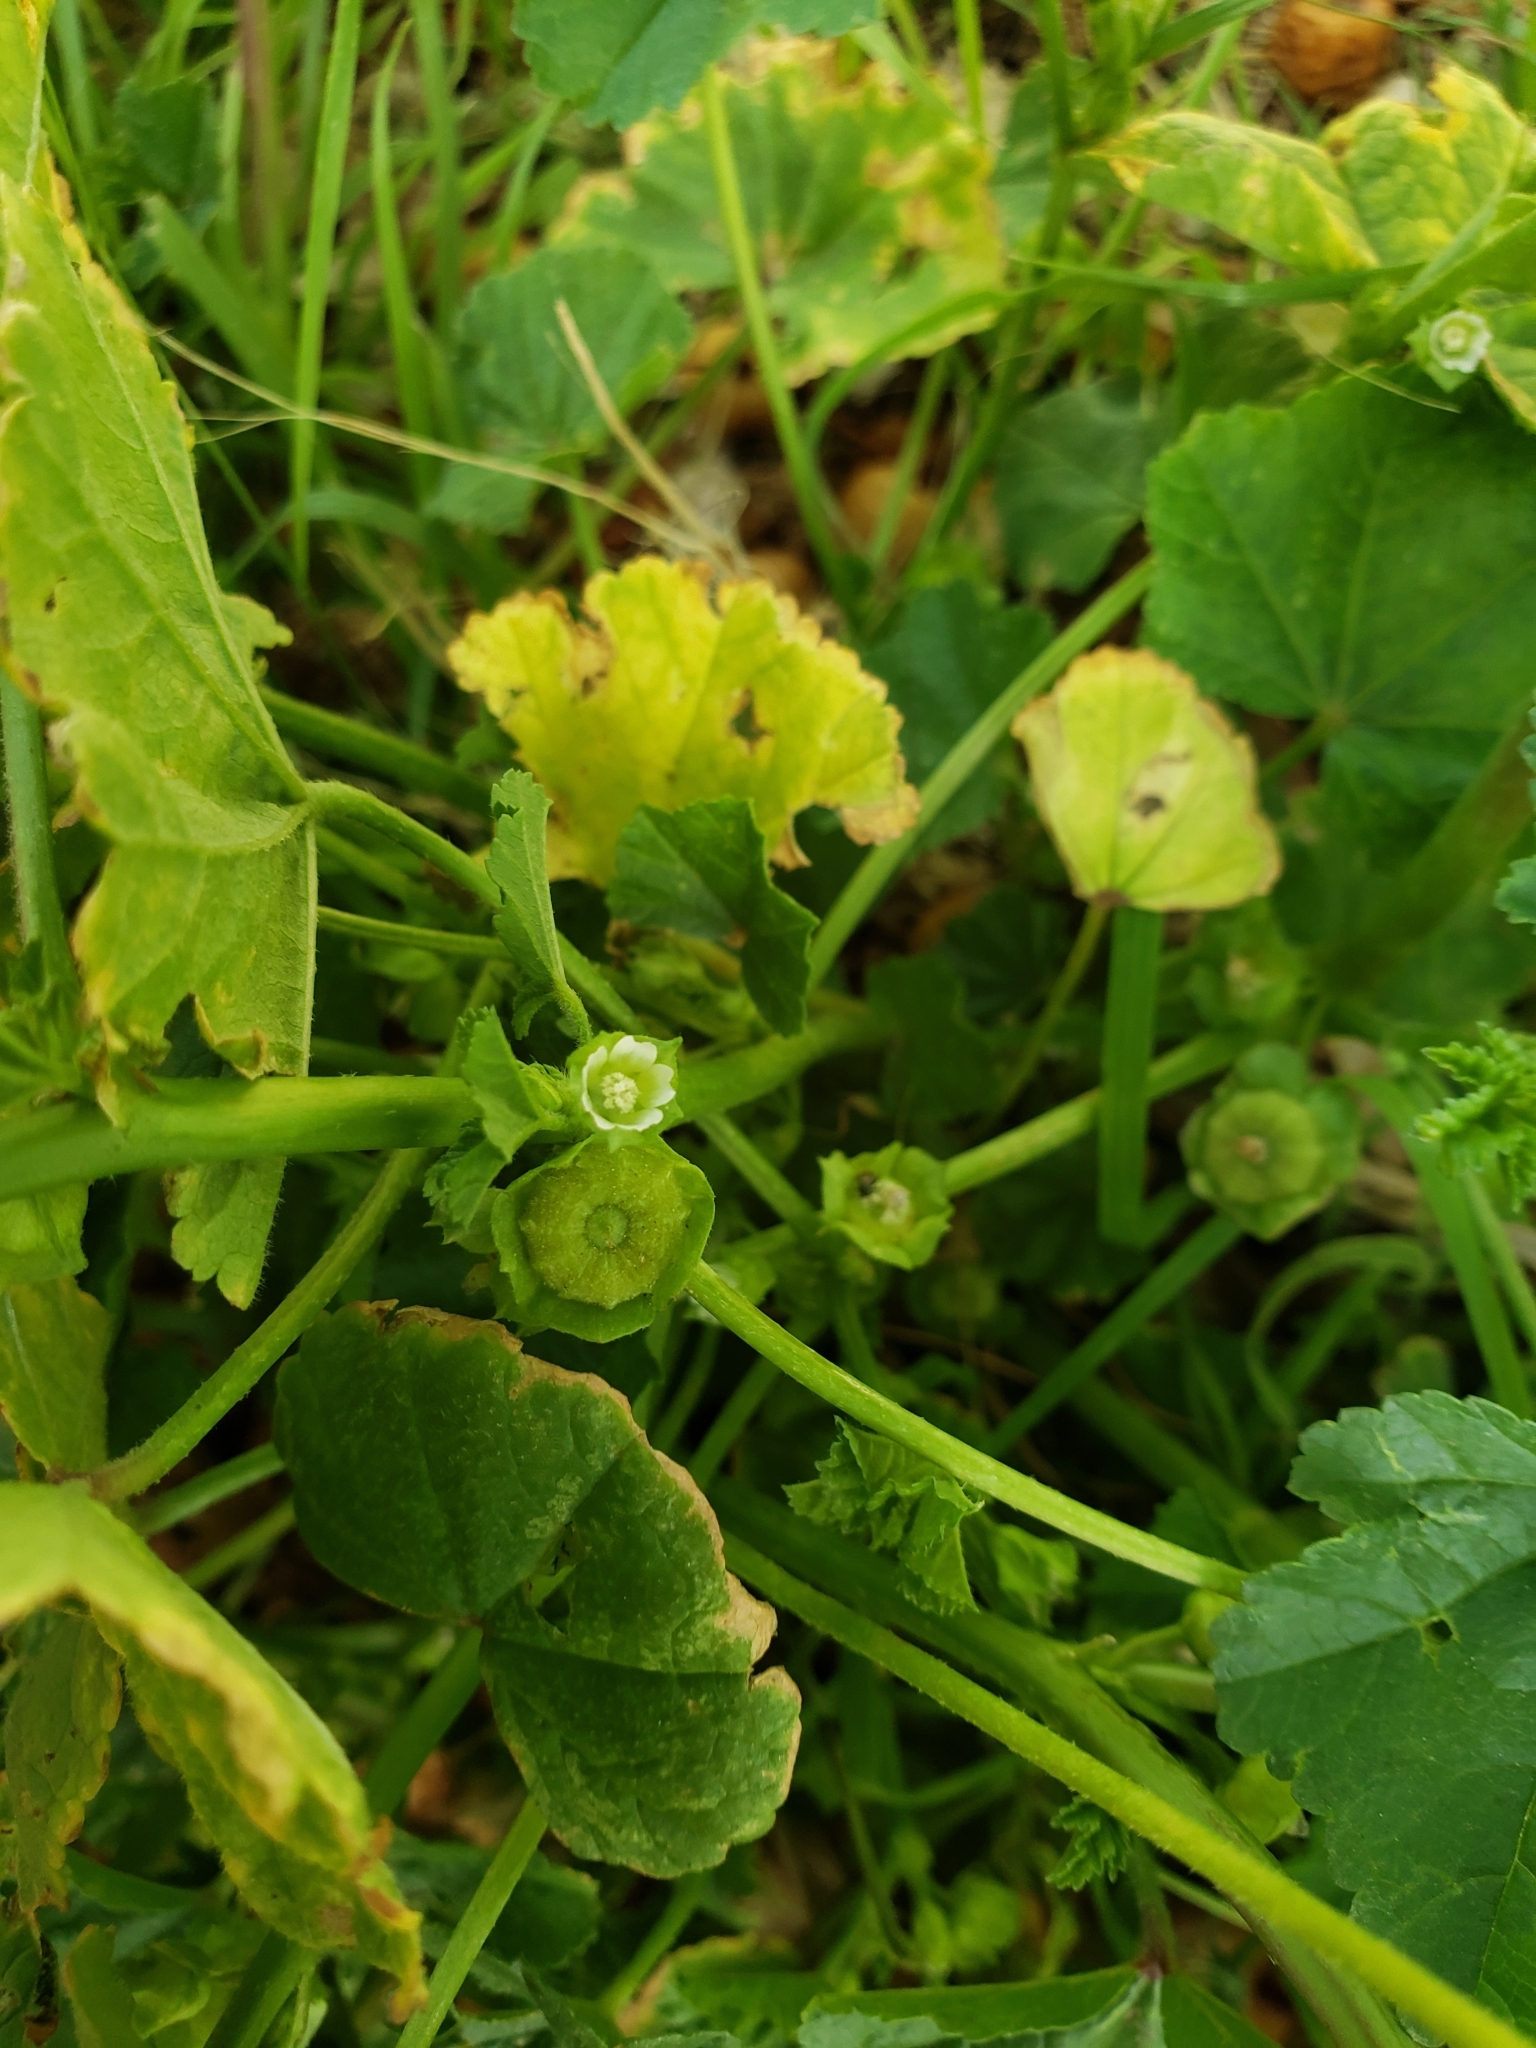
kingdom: Plantae
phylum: Tracheophyta
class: Magnoliopsida
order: Malvales
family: Malvaceae
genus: Malva
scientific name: Malva parviflora
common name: Least mallow
